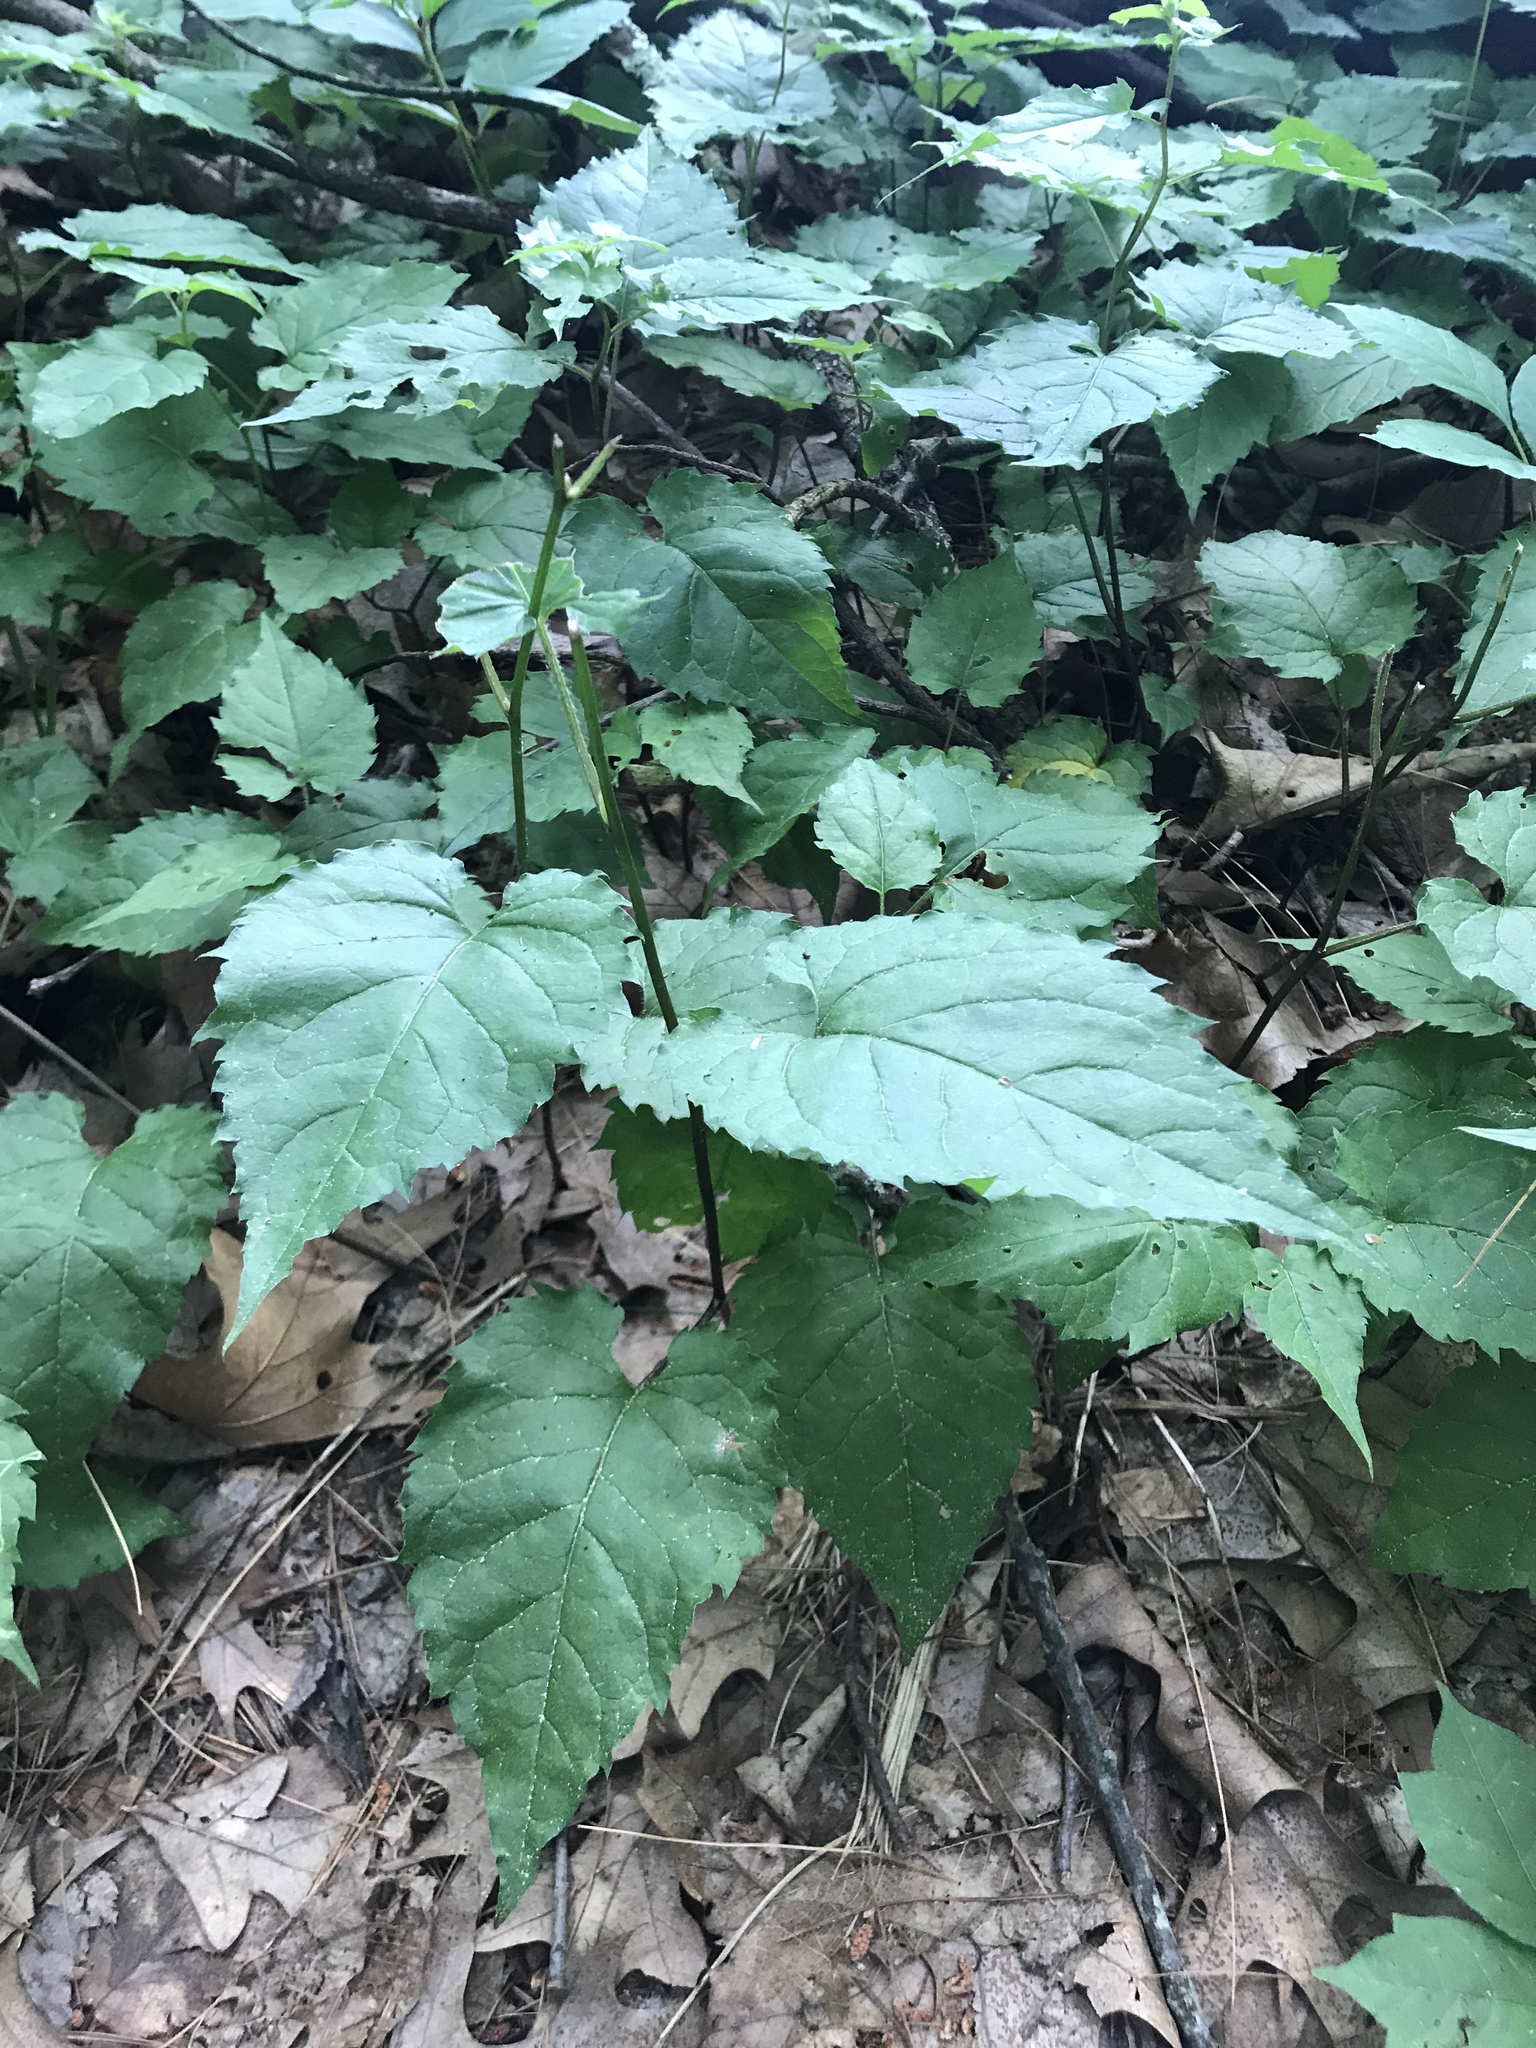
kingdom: Plantae
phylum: Tracheophyta
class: Magnoliopsida
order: Asterales
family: Asteraceae
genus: Eurybia
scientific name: Eurybia divaricata
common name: White wood aster
